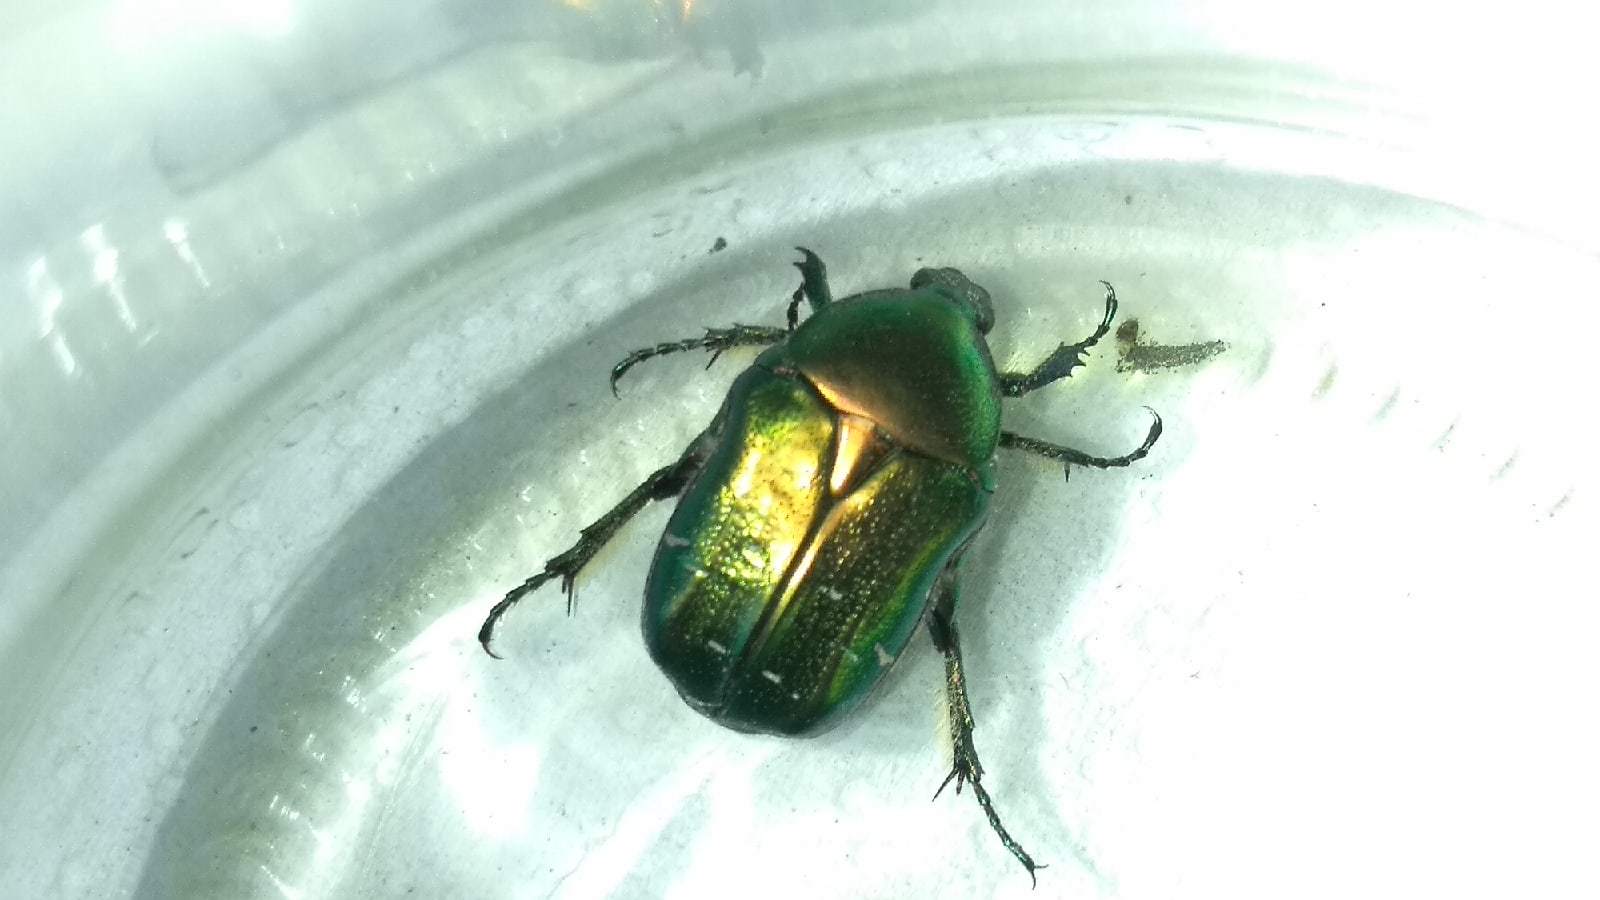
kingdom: Animalia
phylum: Arthropoda
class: Insecta
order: Coleoptera
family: Scarabaeidae
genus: Cetonia
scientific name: Cetonia aurata
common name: Rose chafer
